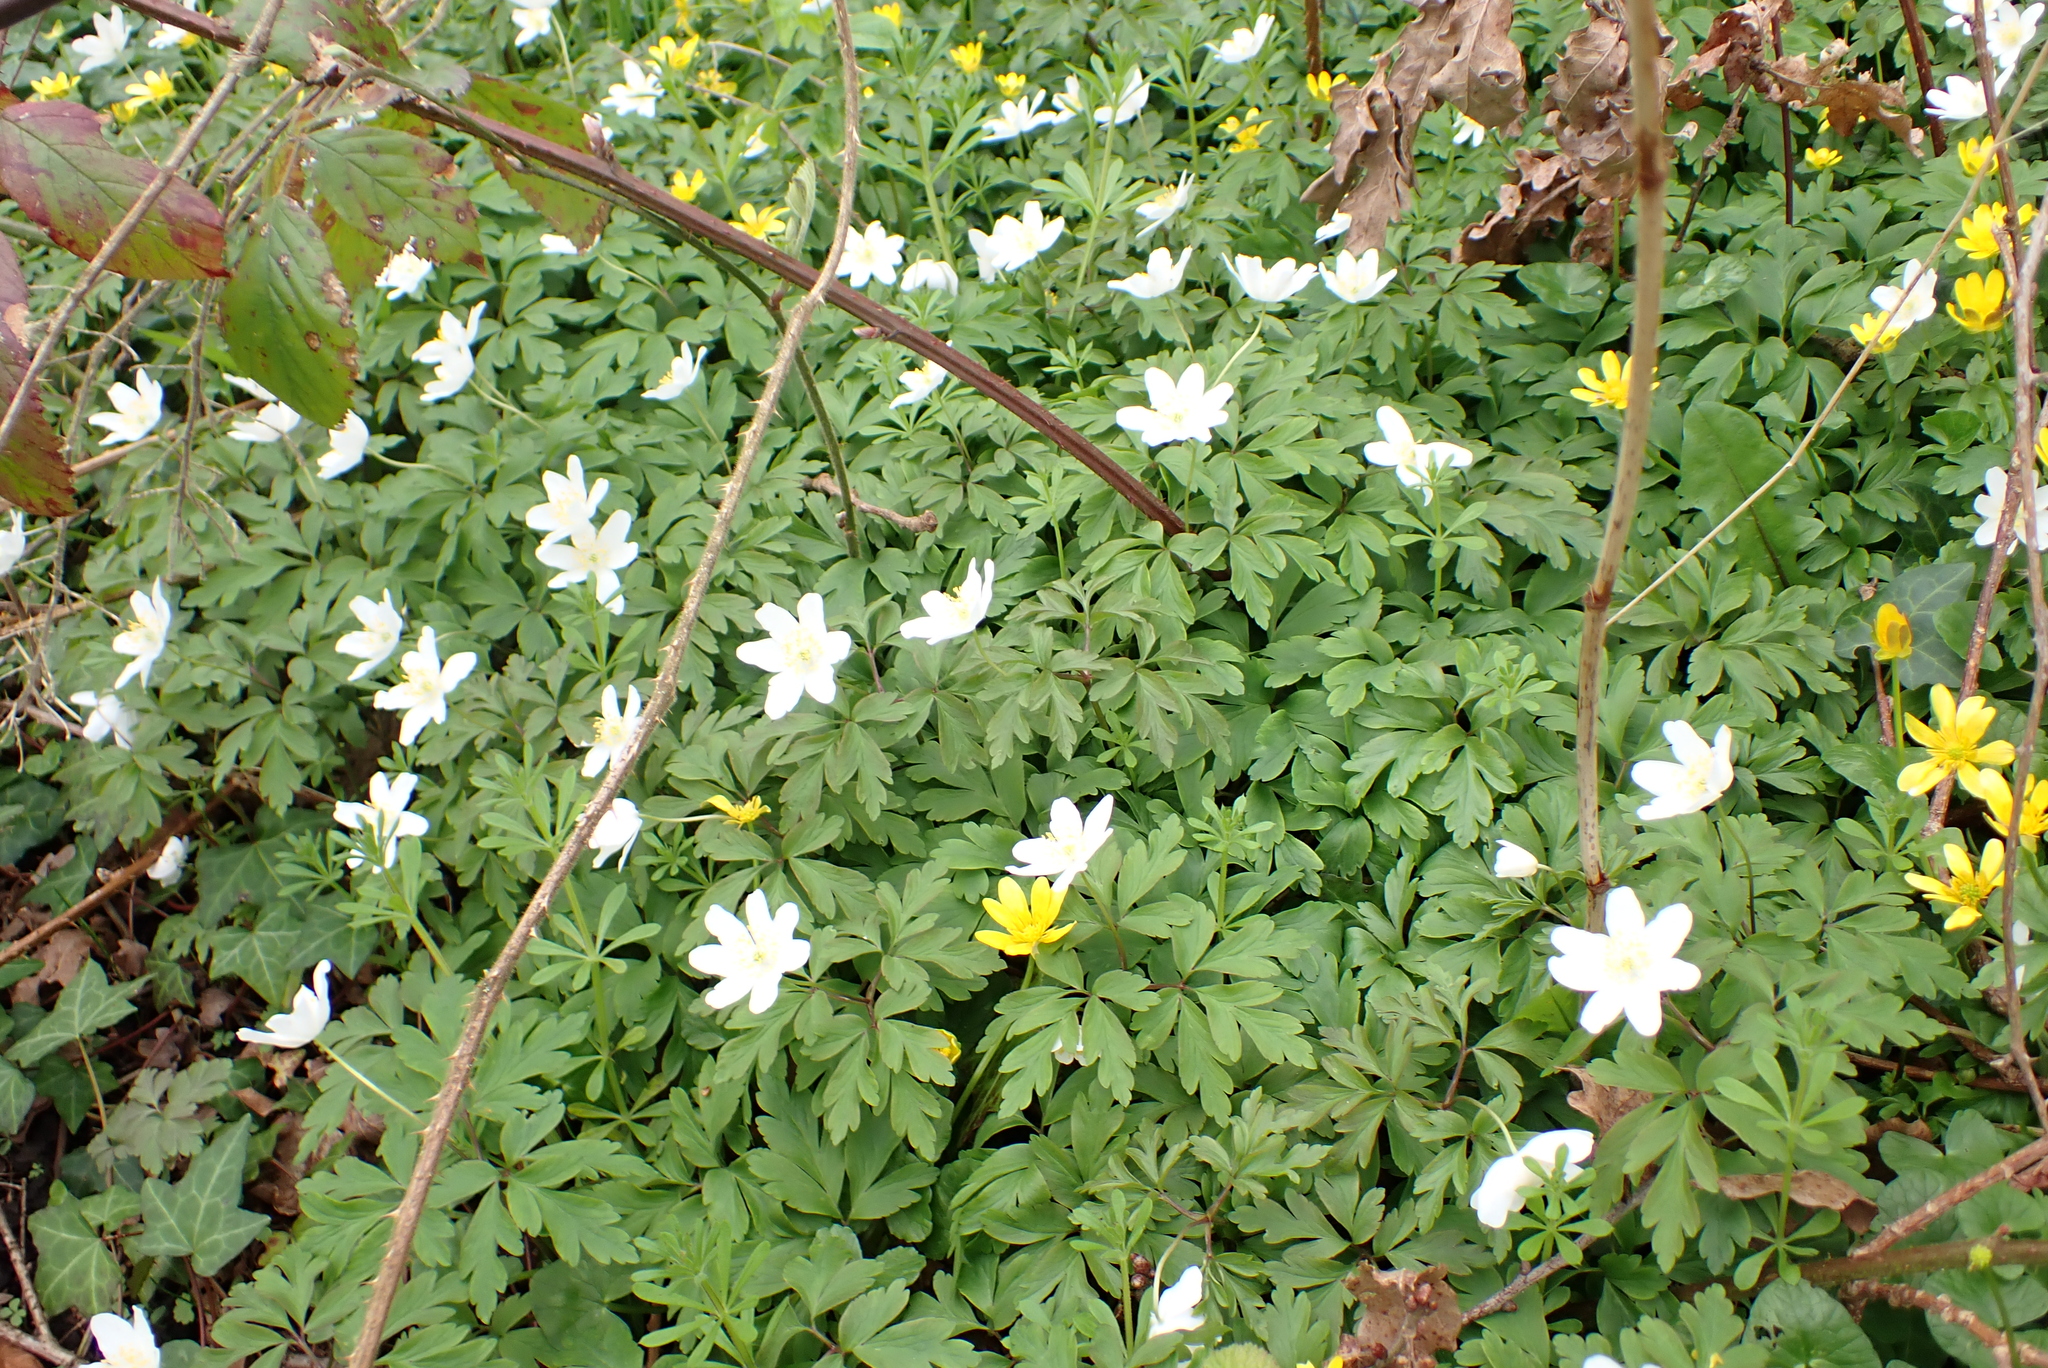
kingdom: Plantae
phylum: Tracheophyta
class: Magnoliopsida
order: Ranunculales
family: Ranunculaceae
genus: Anemone
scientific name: Anemone nemorosa
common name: Wood anemone
